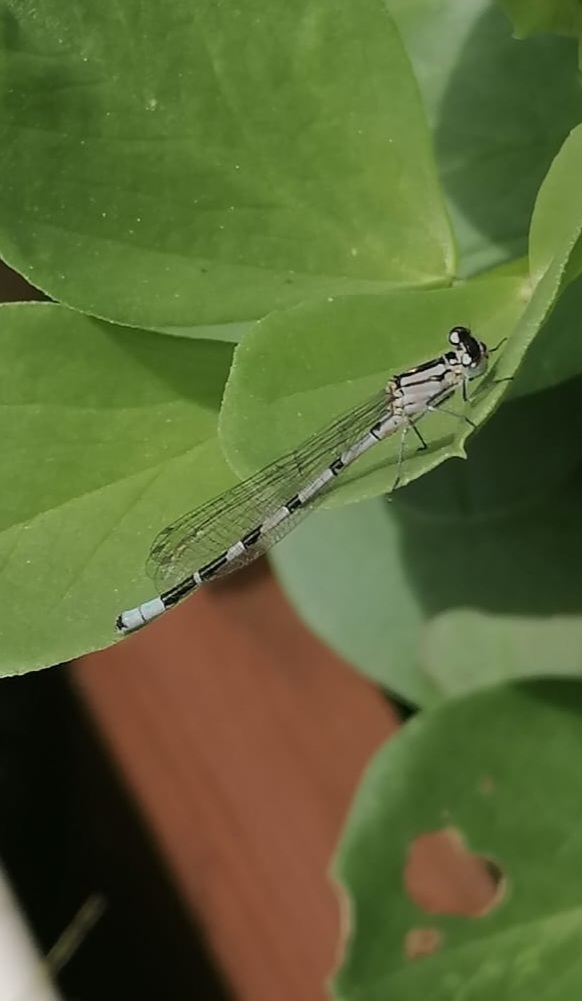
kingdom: Animalia
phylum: Arthropoda
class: Insecta
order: Odonata
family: Coenagrionidae
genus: Enallagma
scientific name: Enallagma cyathigerum
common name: Common blue damselfly
